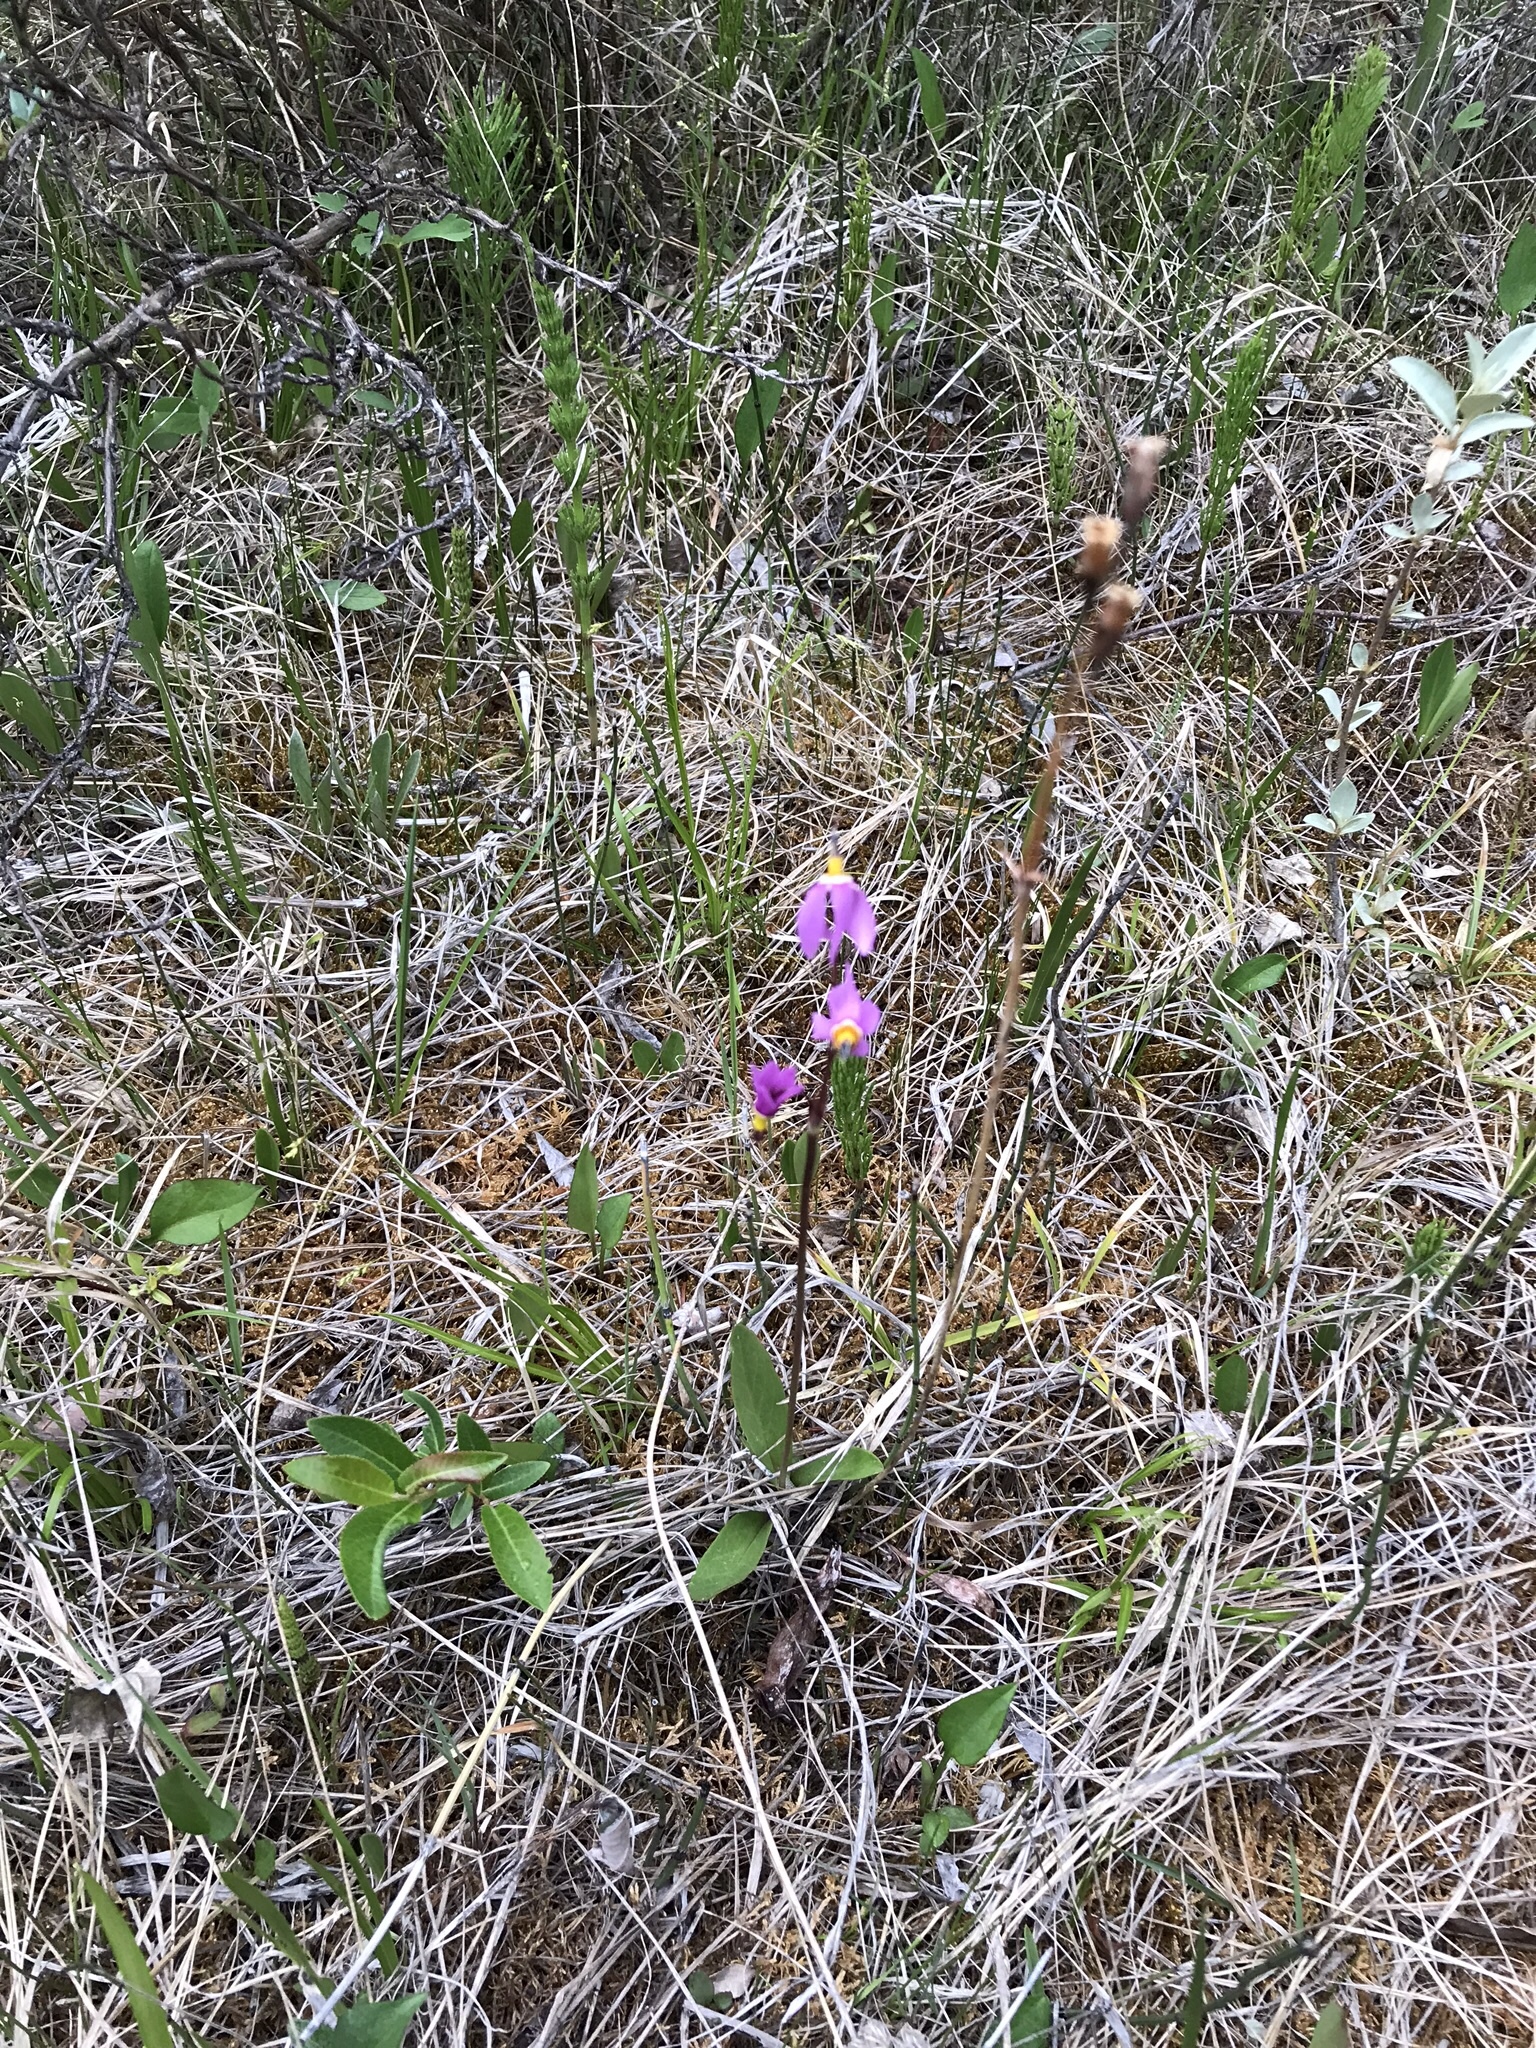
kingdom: Plantae
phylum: Tracheophyta
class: Magnoliopsida
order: Ericales
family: Primulaceae
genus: Dodecatheon
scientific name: Dodecatheon pulchellum
